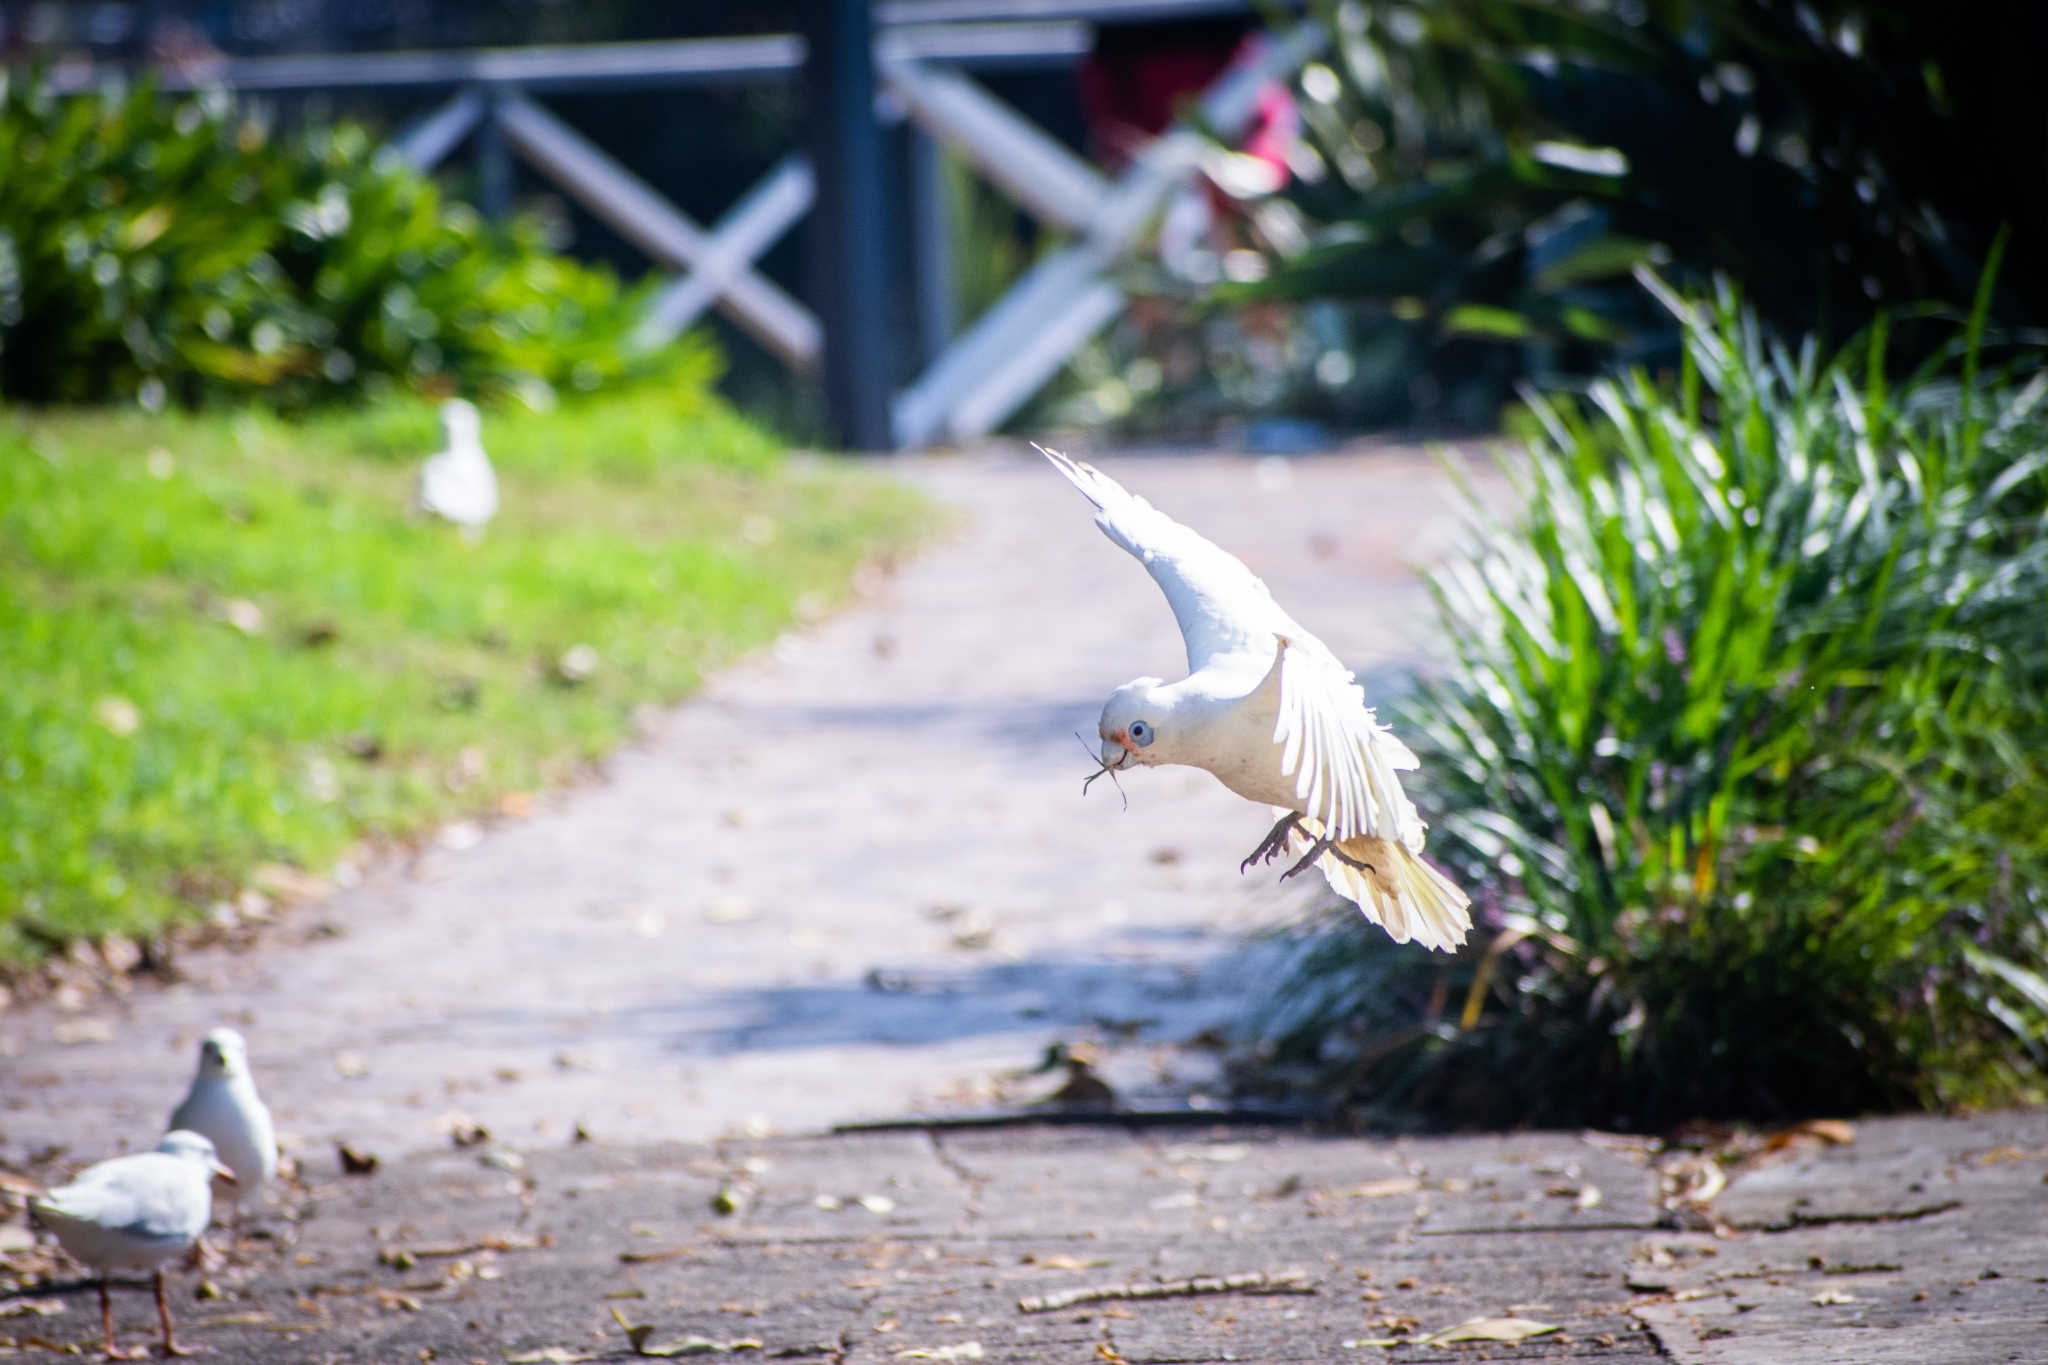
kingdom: Animalia
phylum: Chordata
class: Aves
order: Psittaciformes
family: Psittacidae
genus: Cacatua
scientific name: Cacatua sanguinea
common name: Little corella
